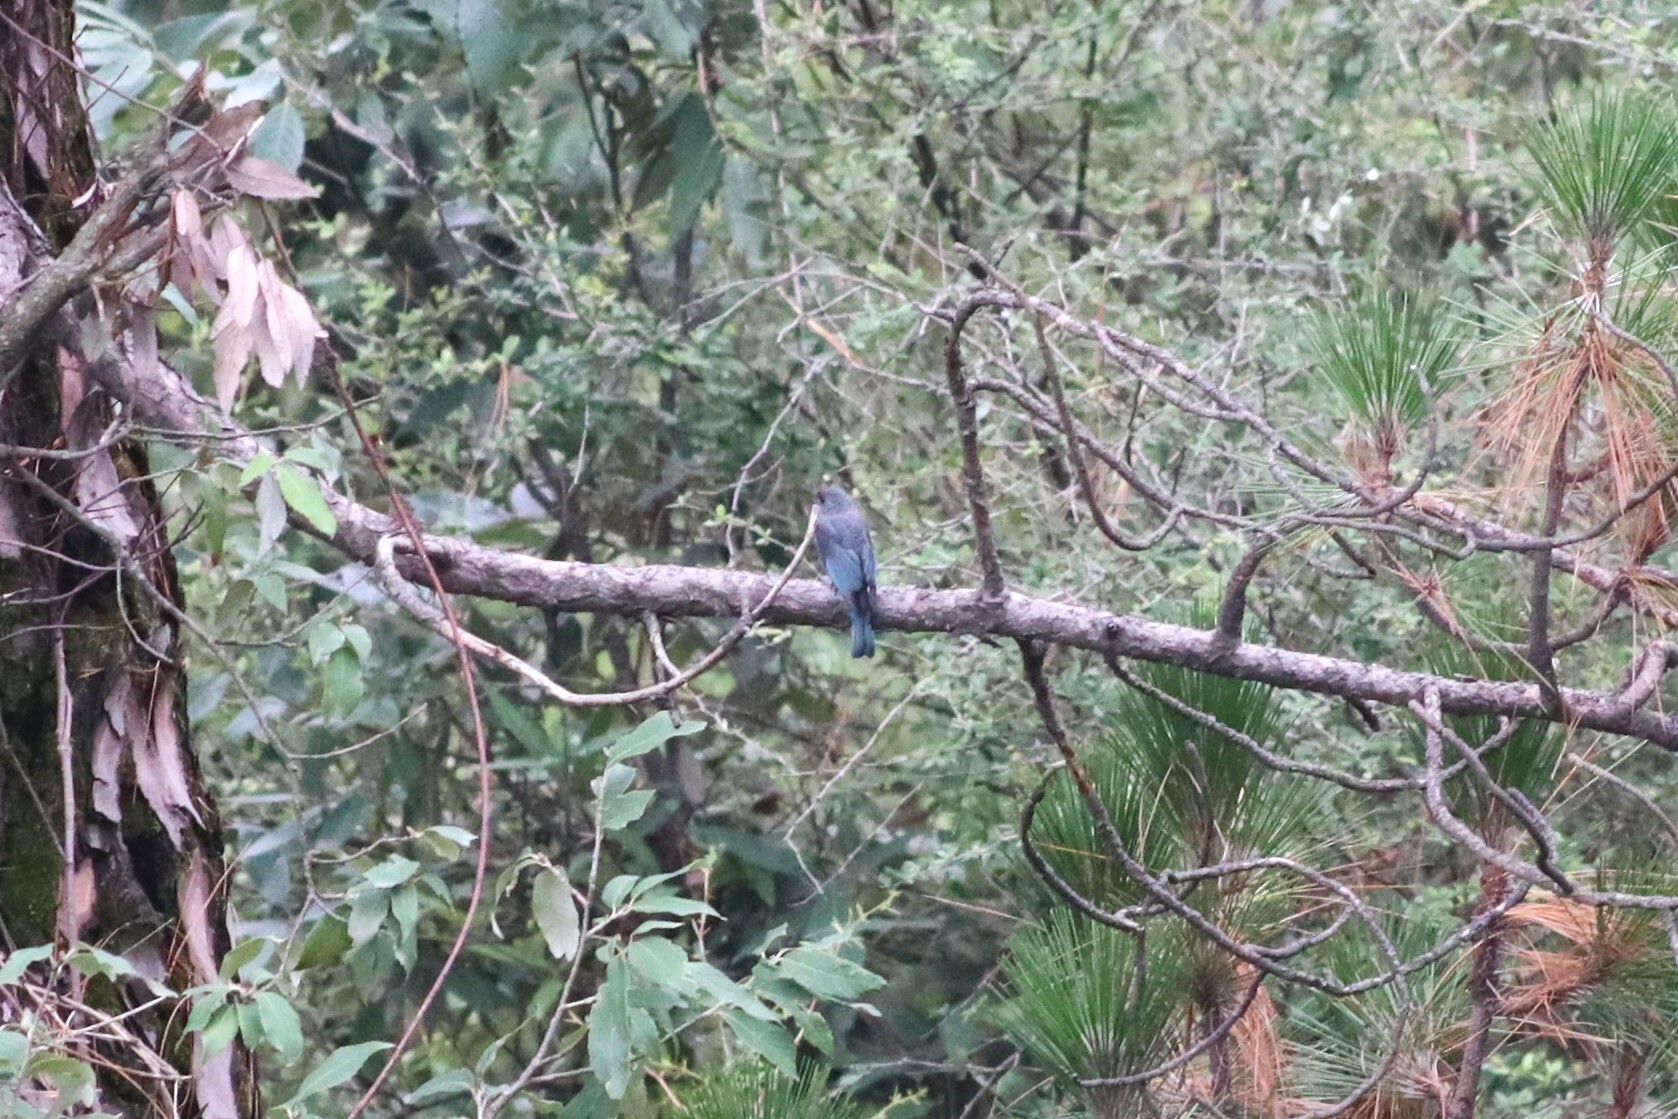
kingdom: Animalia
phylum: Chordata
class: Aves
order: Passeriformes
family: Muscicapidae
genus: Eumyias
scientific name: Eumyias thalassinus
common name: Verditer flycatcher
